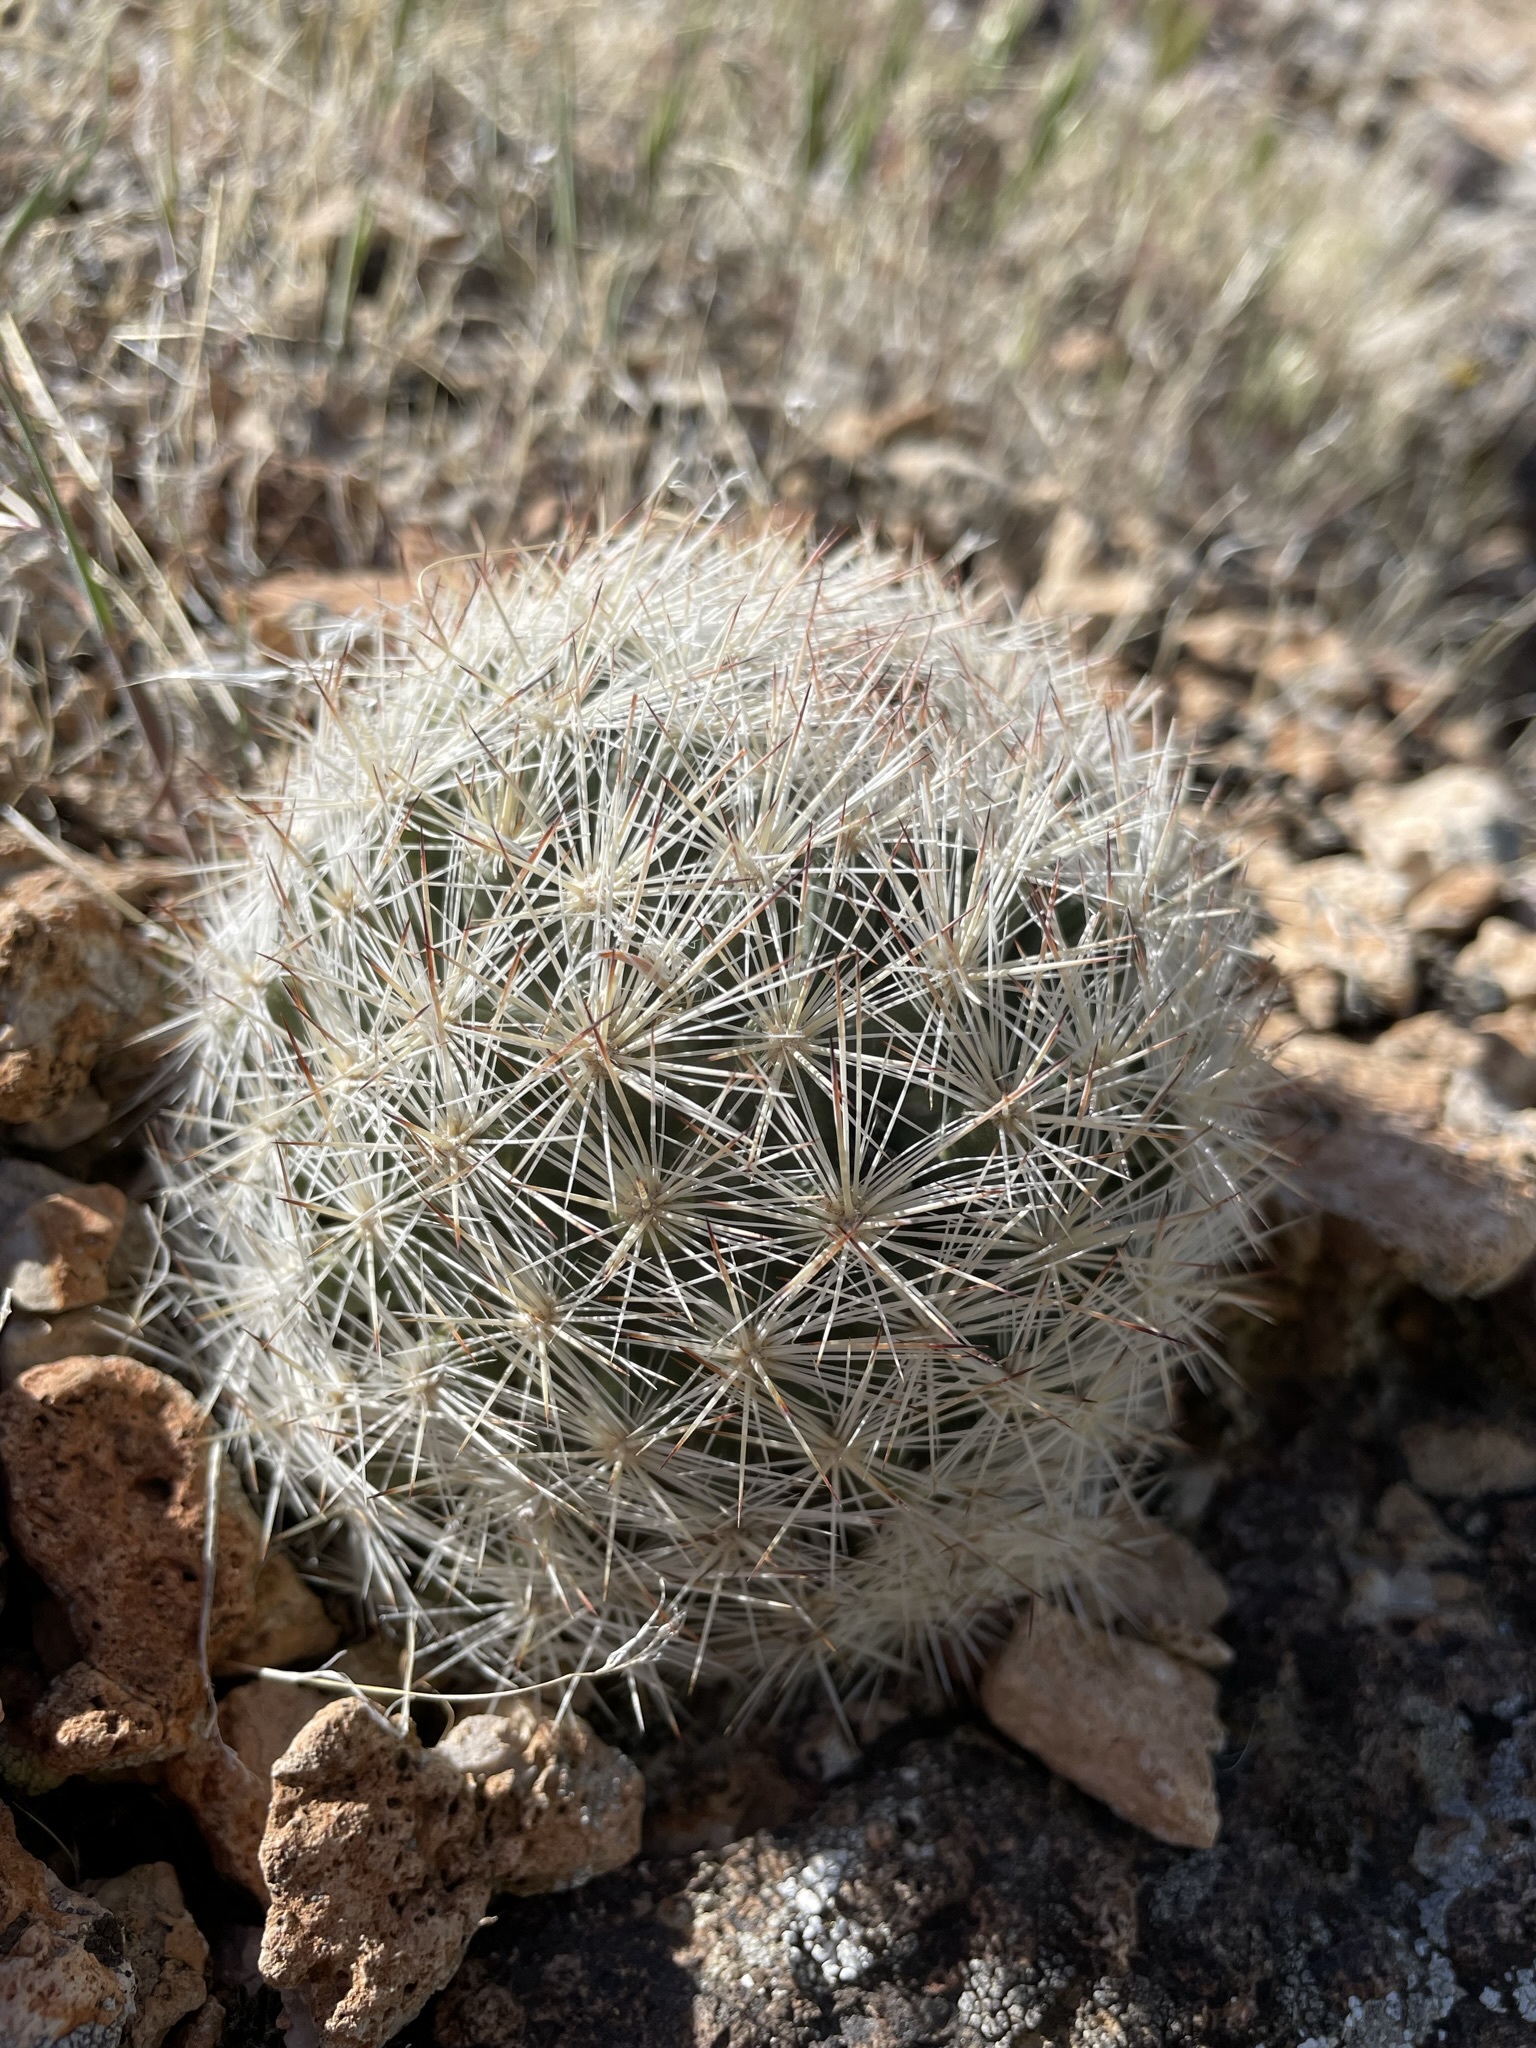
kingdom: Plantae
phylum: Tracheophyta
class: Magnoliopsida
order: Caryophyllales
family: Cactaceae
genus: Pelecyphora
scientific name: Pelecyphora vivipara
